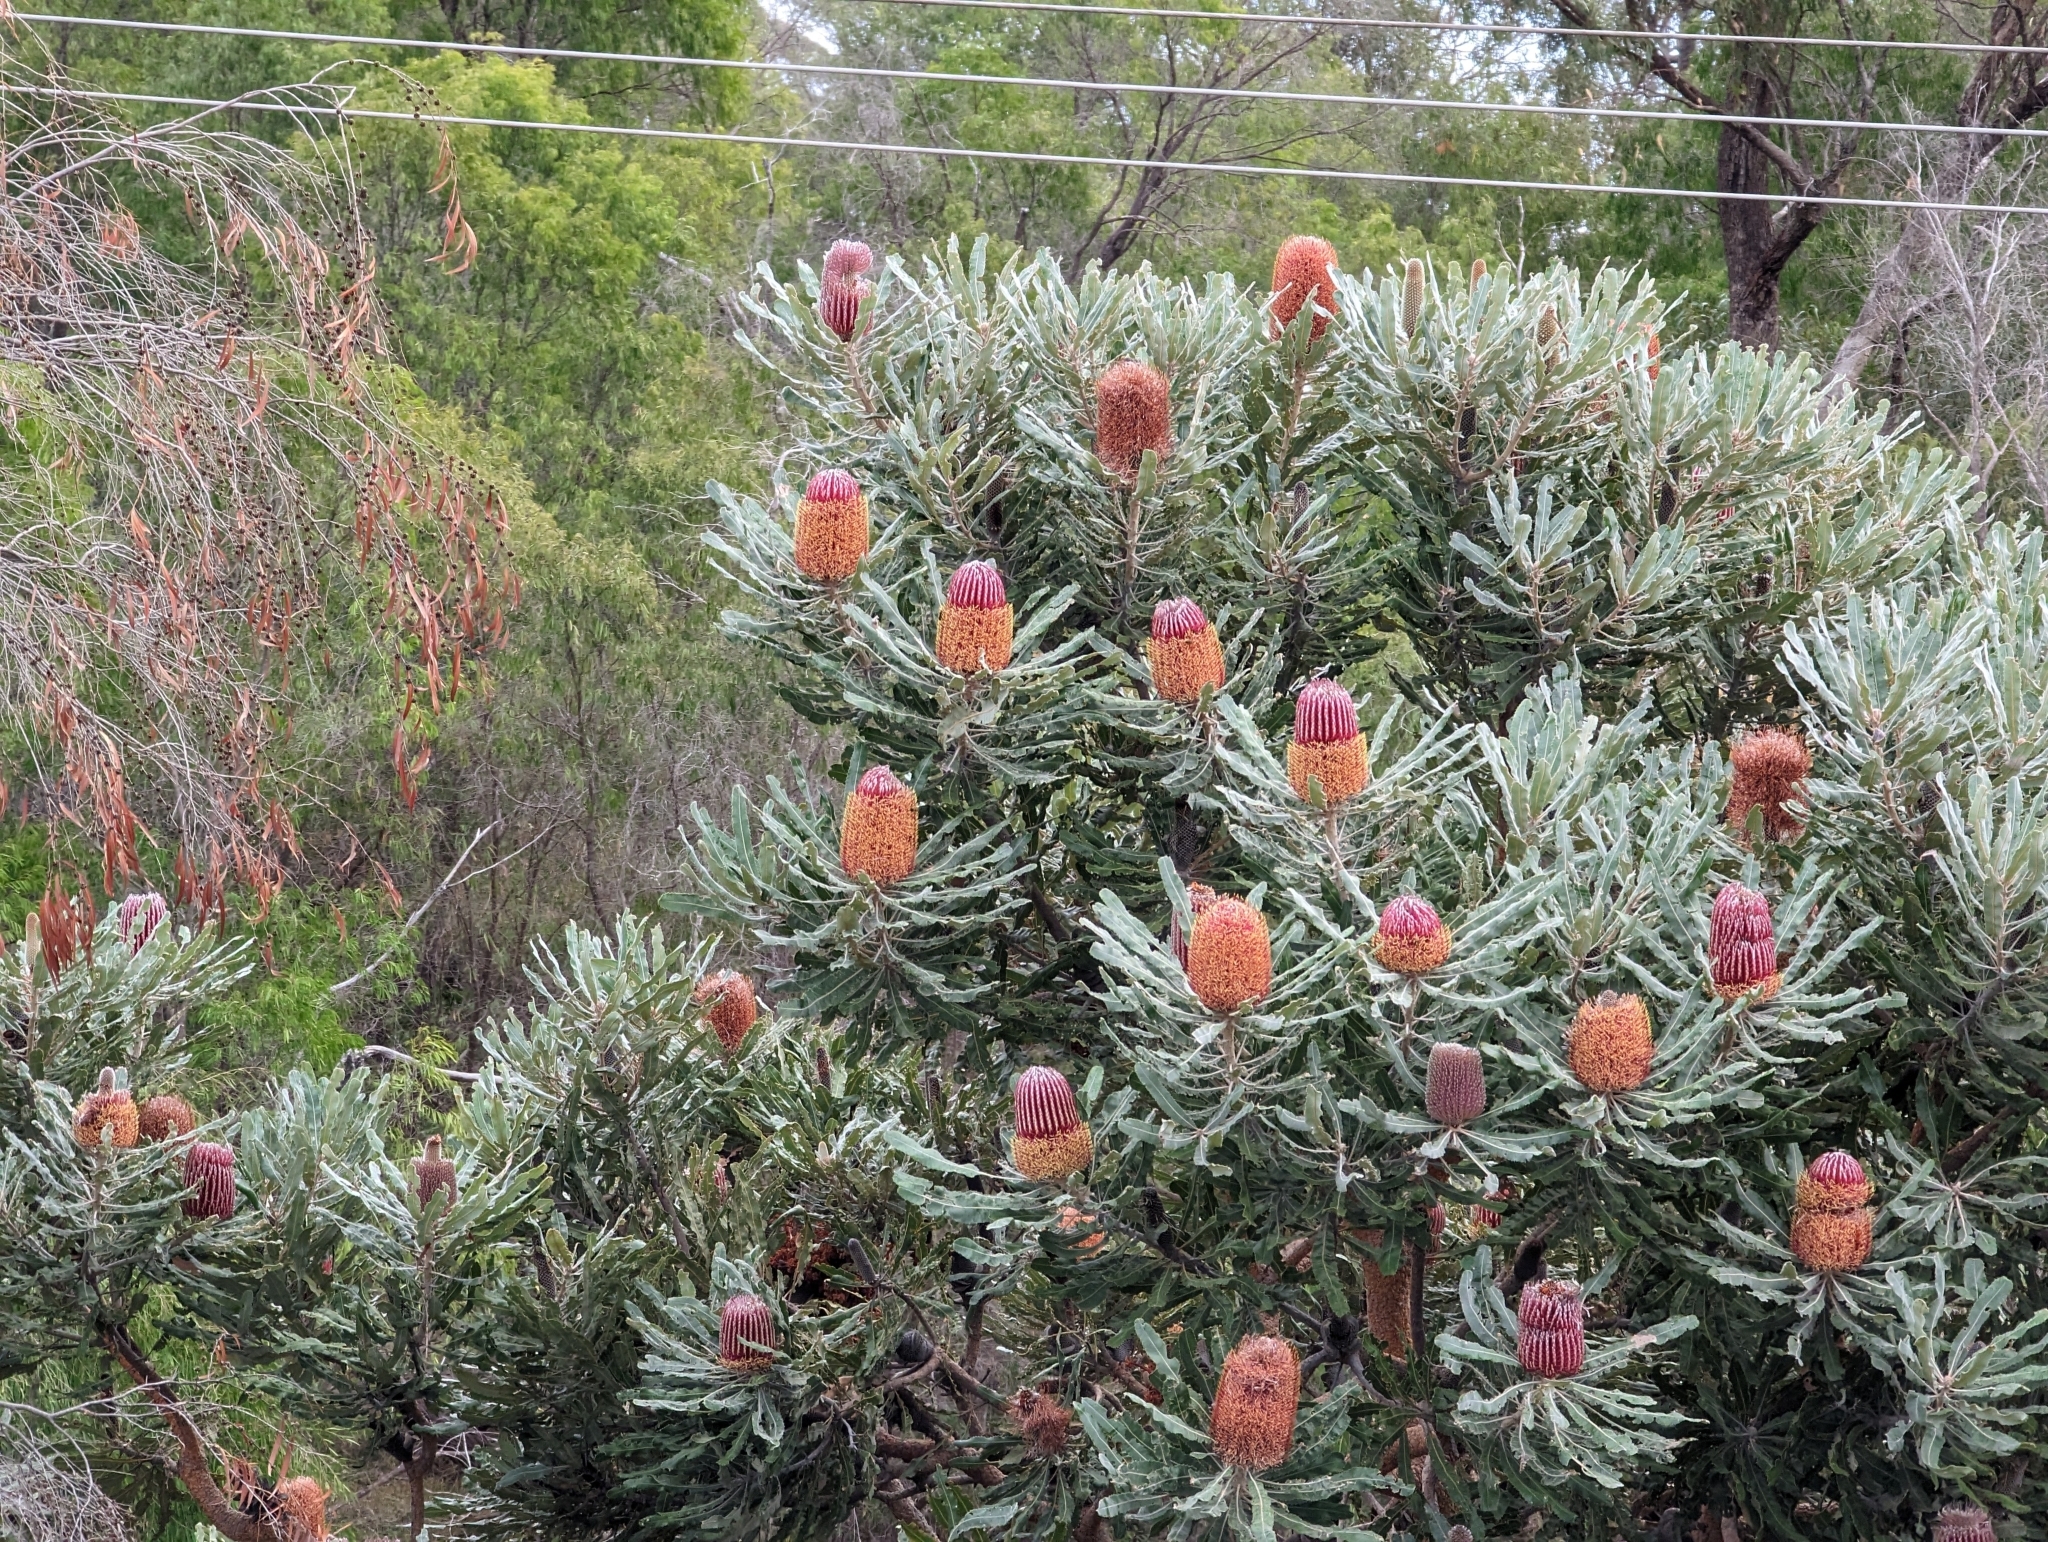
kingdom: Plantae
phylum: Tracheophyta
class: Magnoliopsida
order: Proteales
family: Proteaceae
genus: Banksia
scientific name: Banksia menziesii
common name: Menzie's banksia
